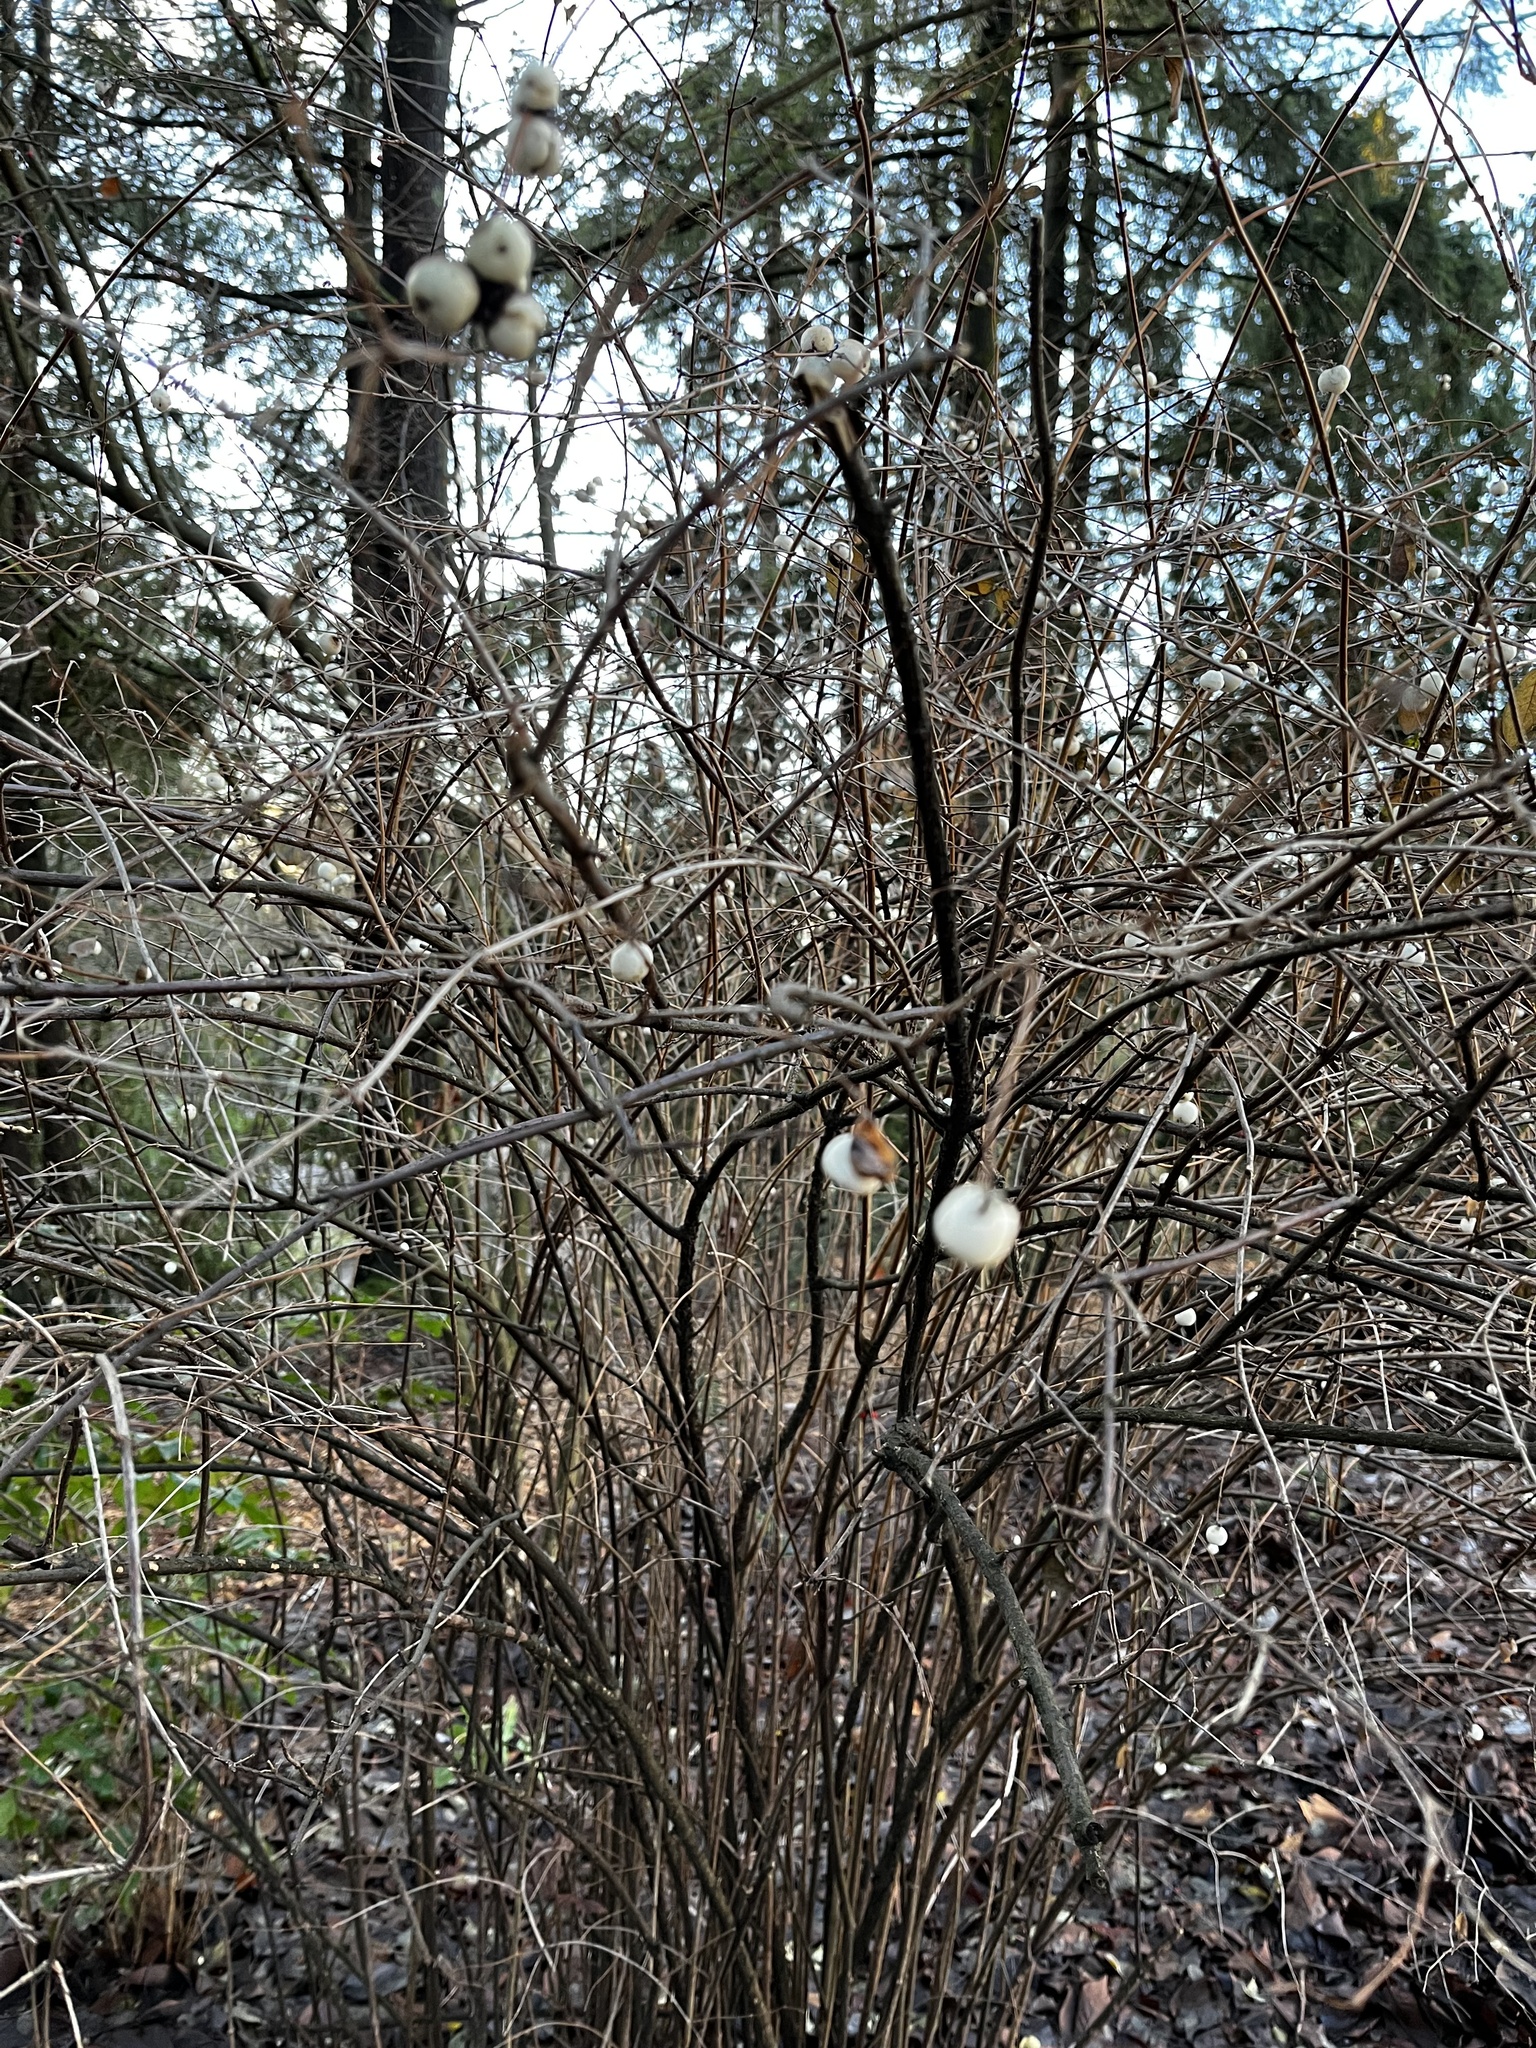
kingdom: Plantae
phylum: Tracheophyta
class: Magnoliopsida
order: Dipsacales
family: Caprifoliaceae
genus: Symphoricarpos
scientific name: Symphoricarpos albus
